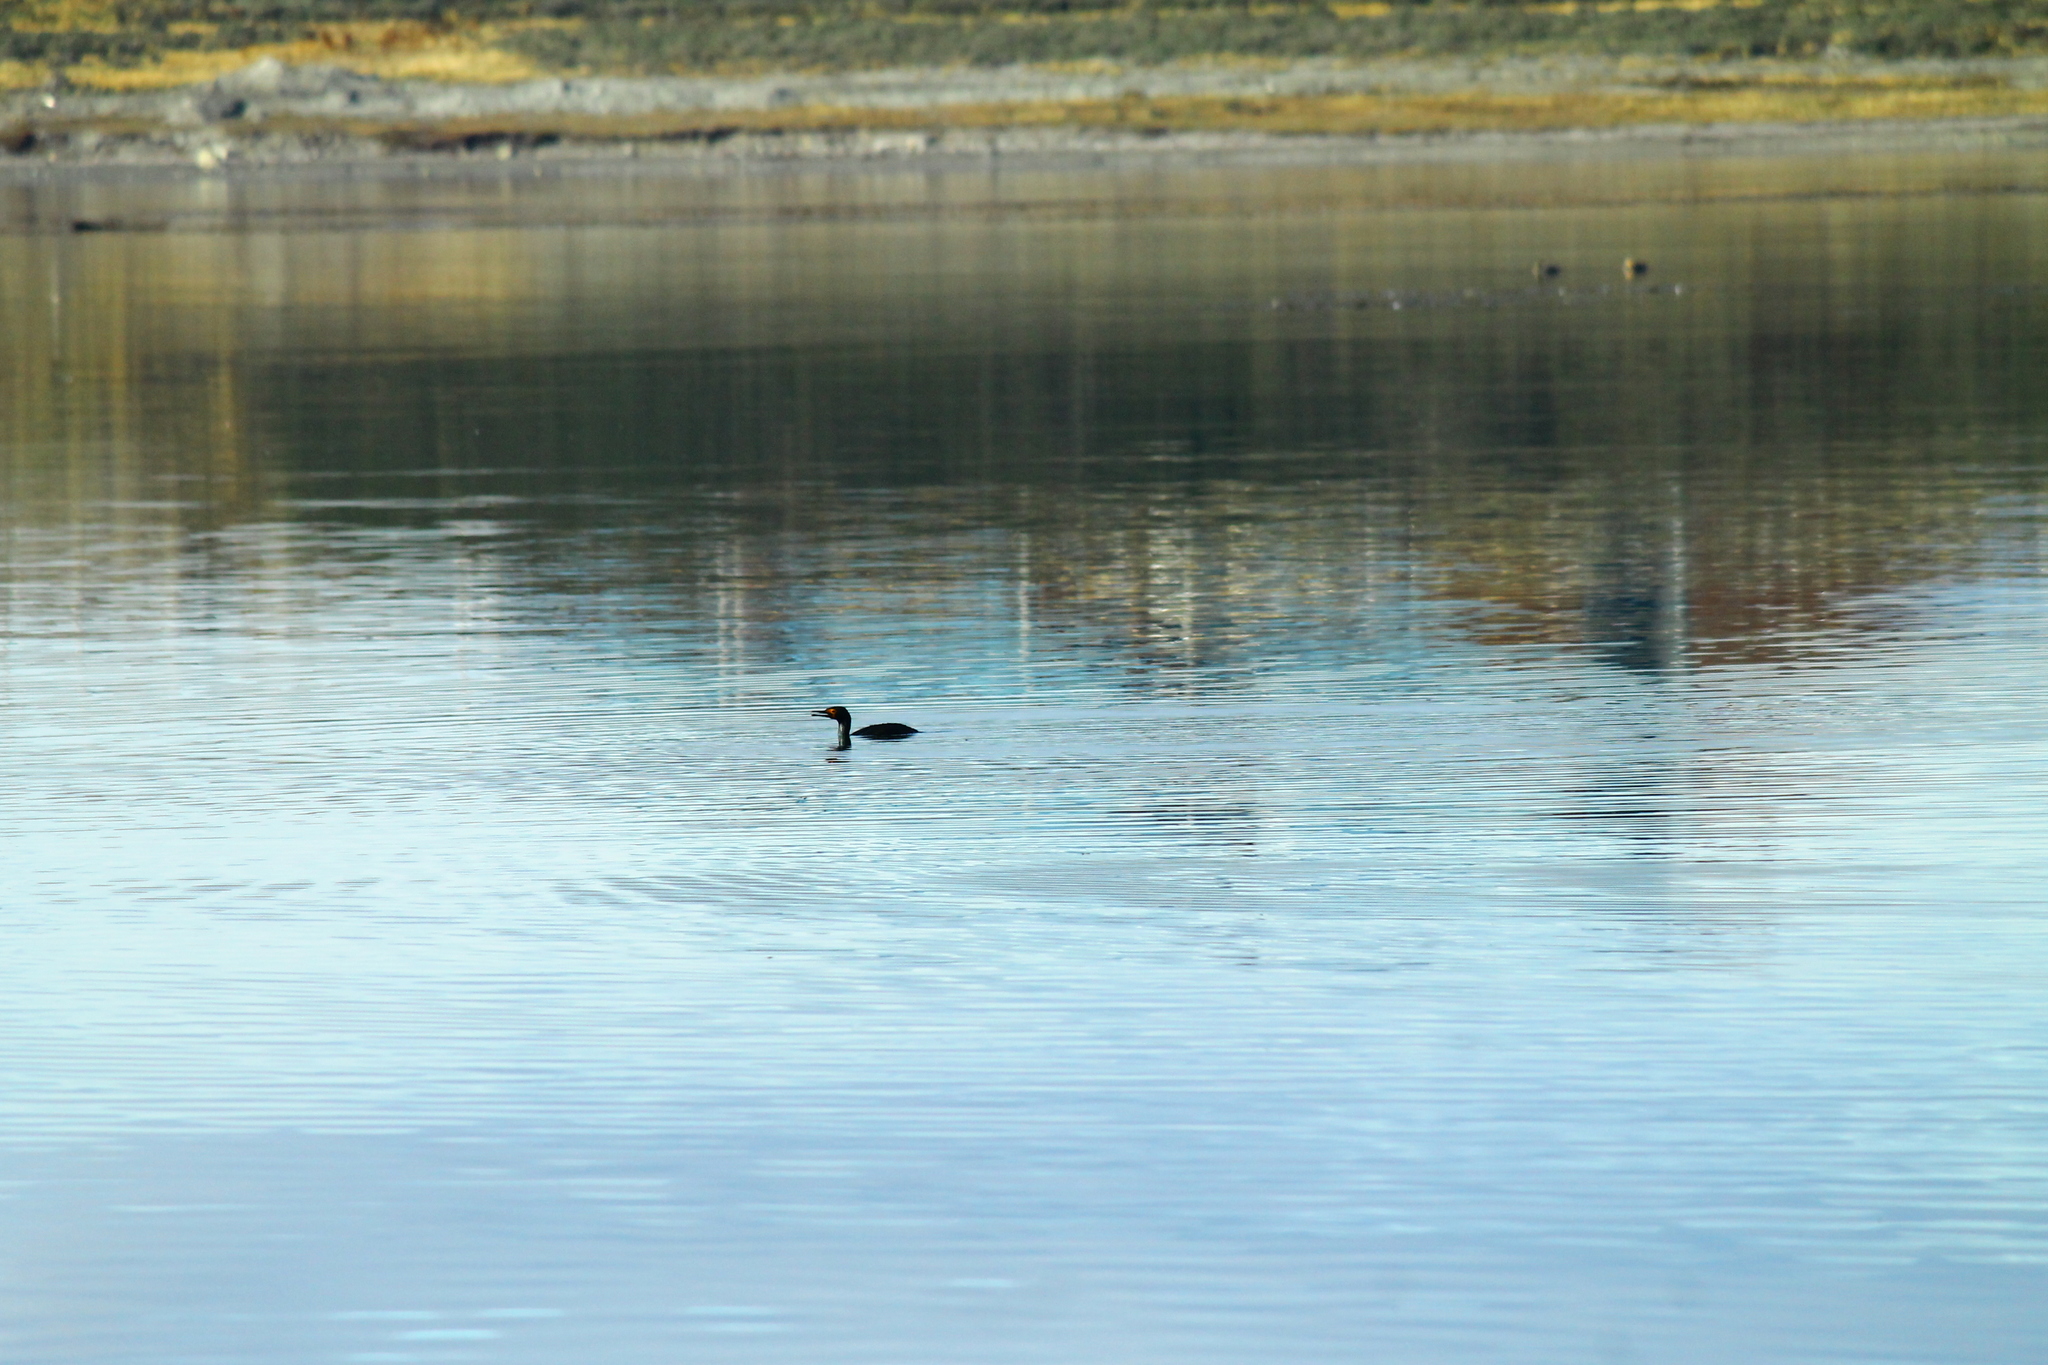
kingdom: Animalia
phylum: Chordata
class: Aves
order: Suliformes
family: Phalacrocoracidae
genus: Phalacrocorax
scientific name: Phalacrocorax brasilianus
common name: Neotropic cormorant
